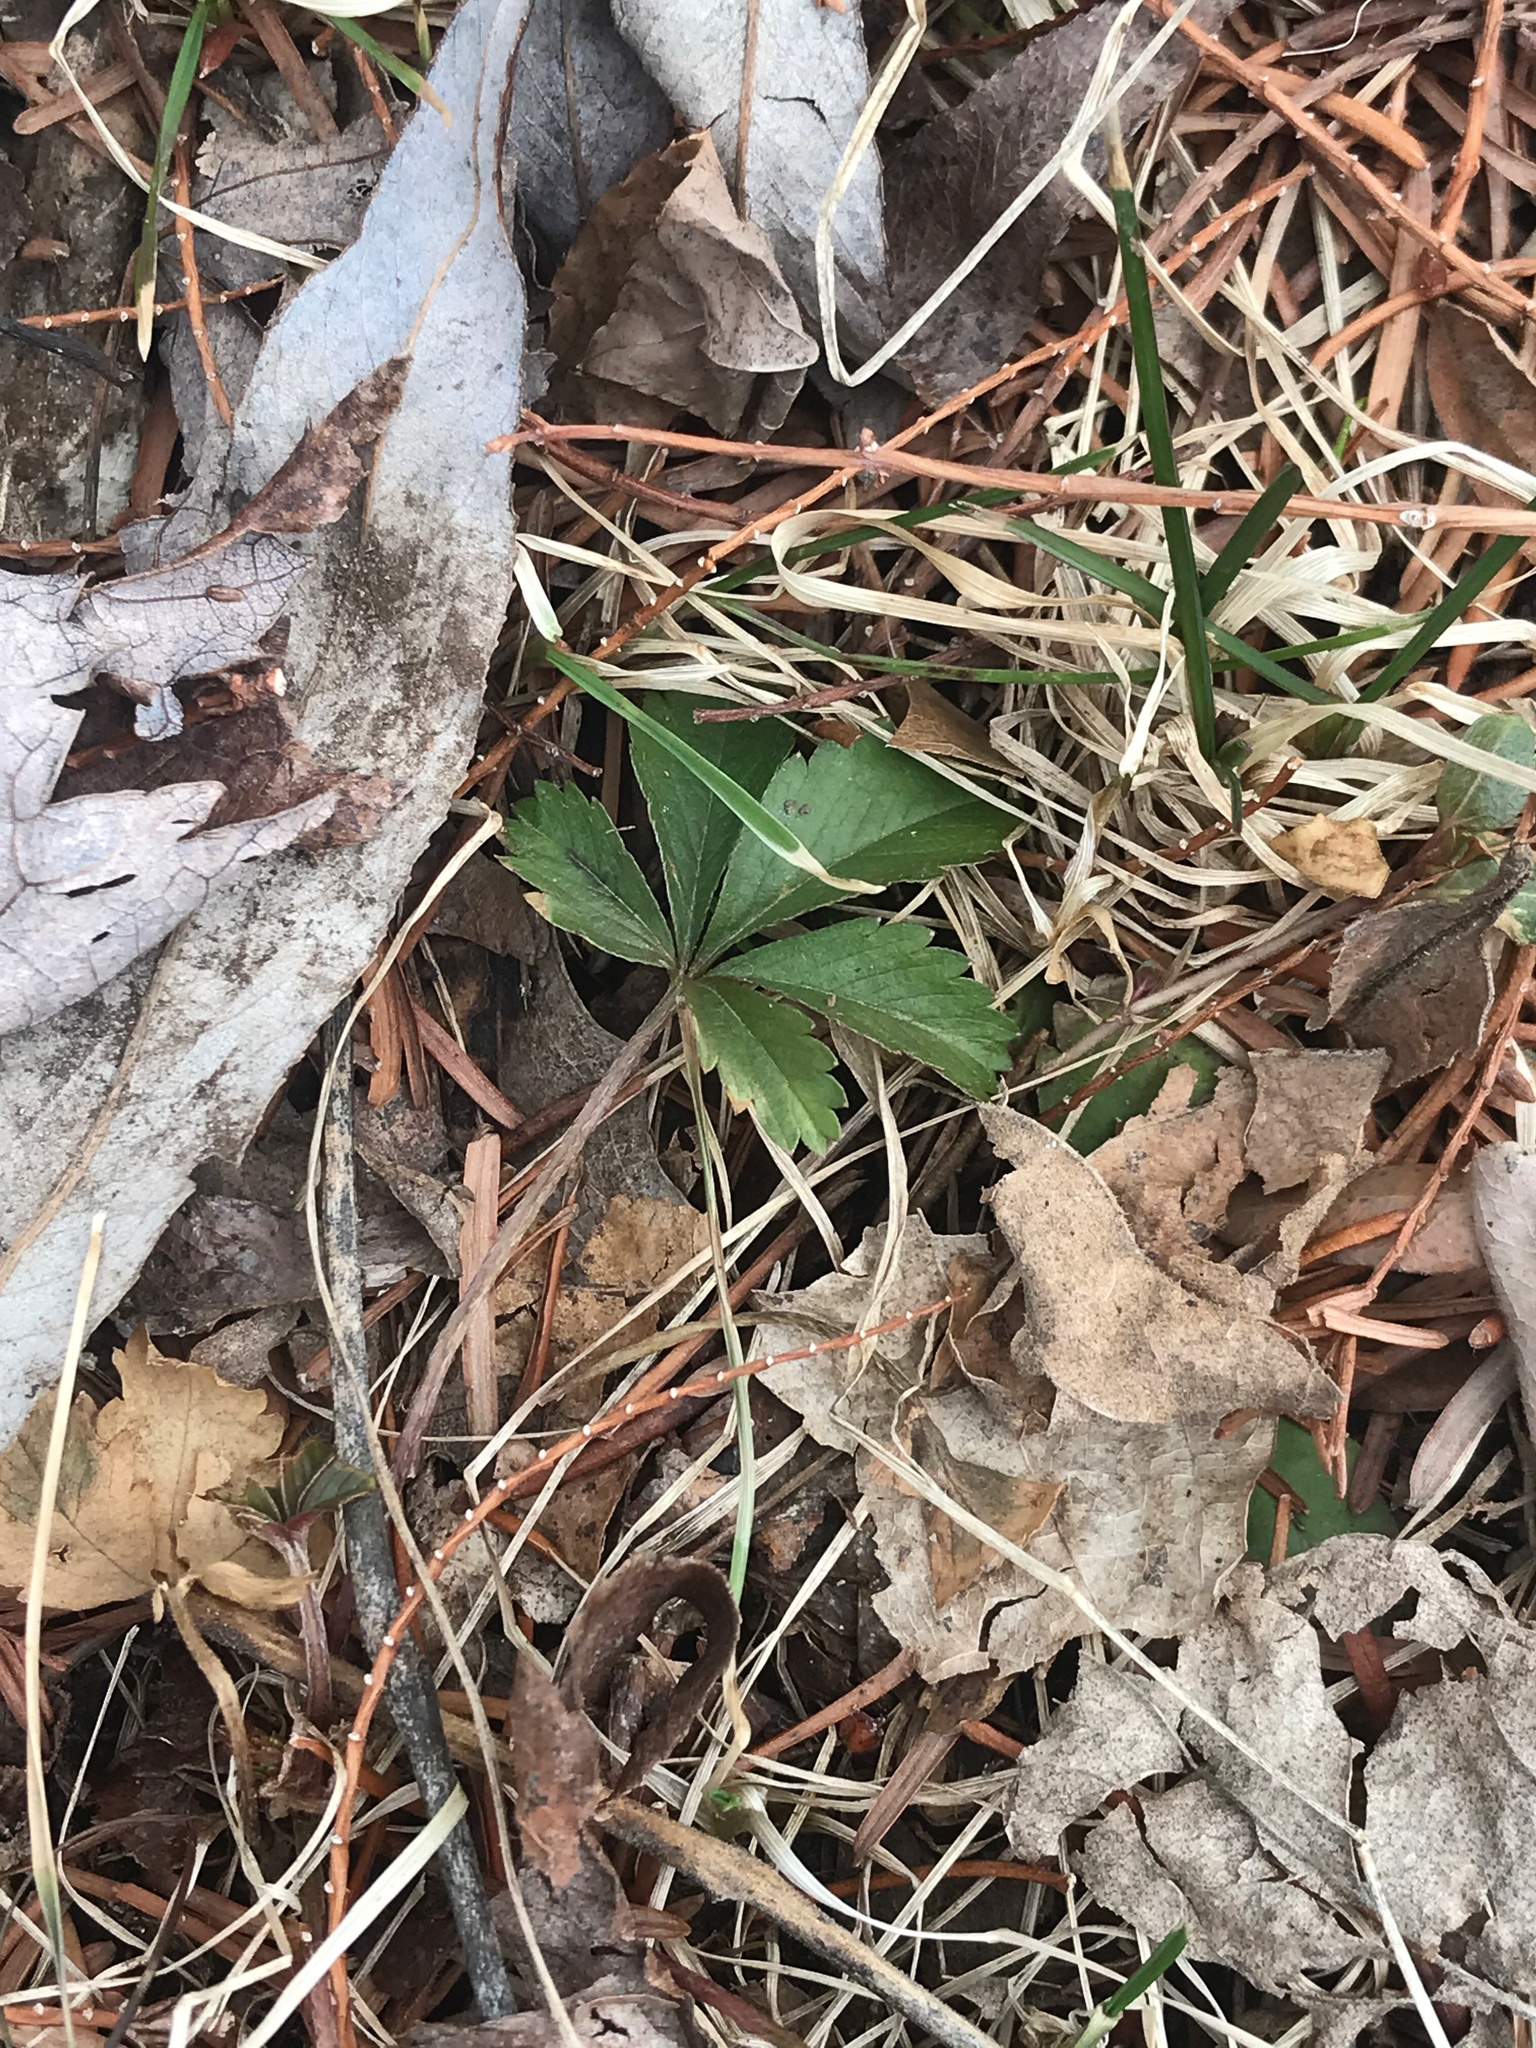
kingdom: Plantae
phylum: Tracheophyta
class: Magnoliopsida
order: Rosales
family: Rosaceae
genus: Potentilla
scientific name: Potentilla canadensis
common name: Canada cinquefoil
